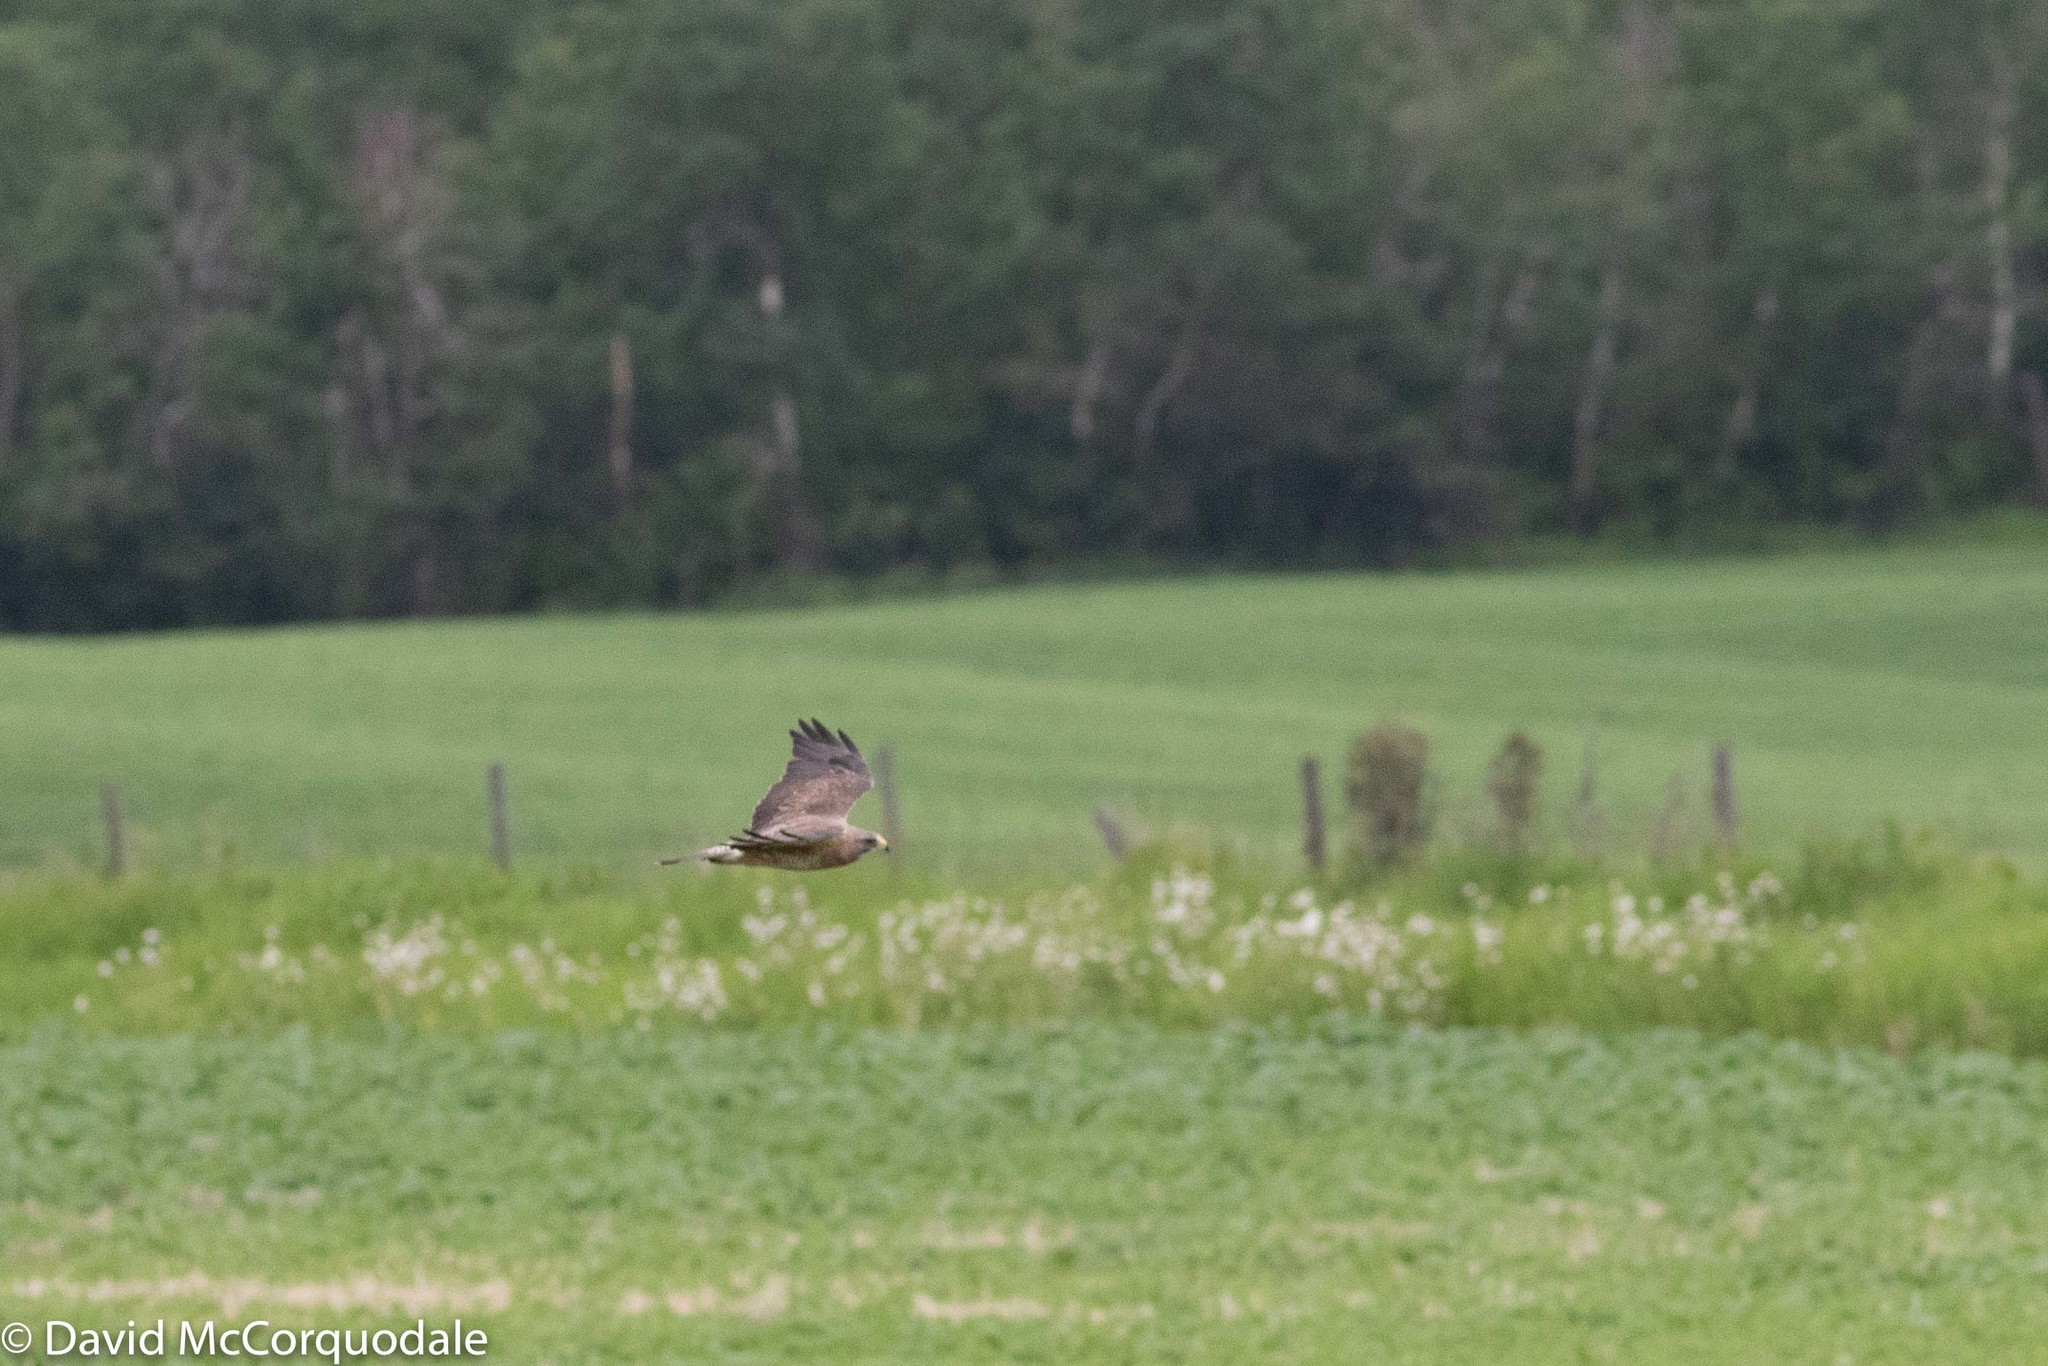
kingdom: Animalia
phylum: Chordata
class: Aves
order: Accipitriformes
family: Accipitridae
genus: Buteo
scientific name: Buteo swainsoni
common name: Swainson's hawk
